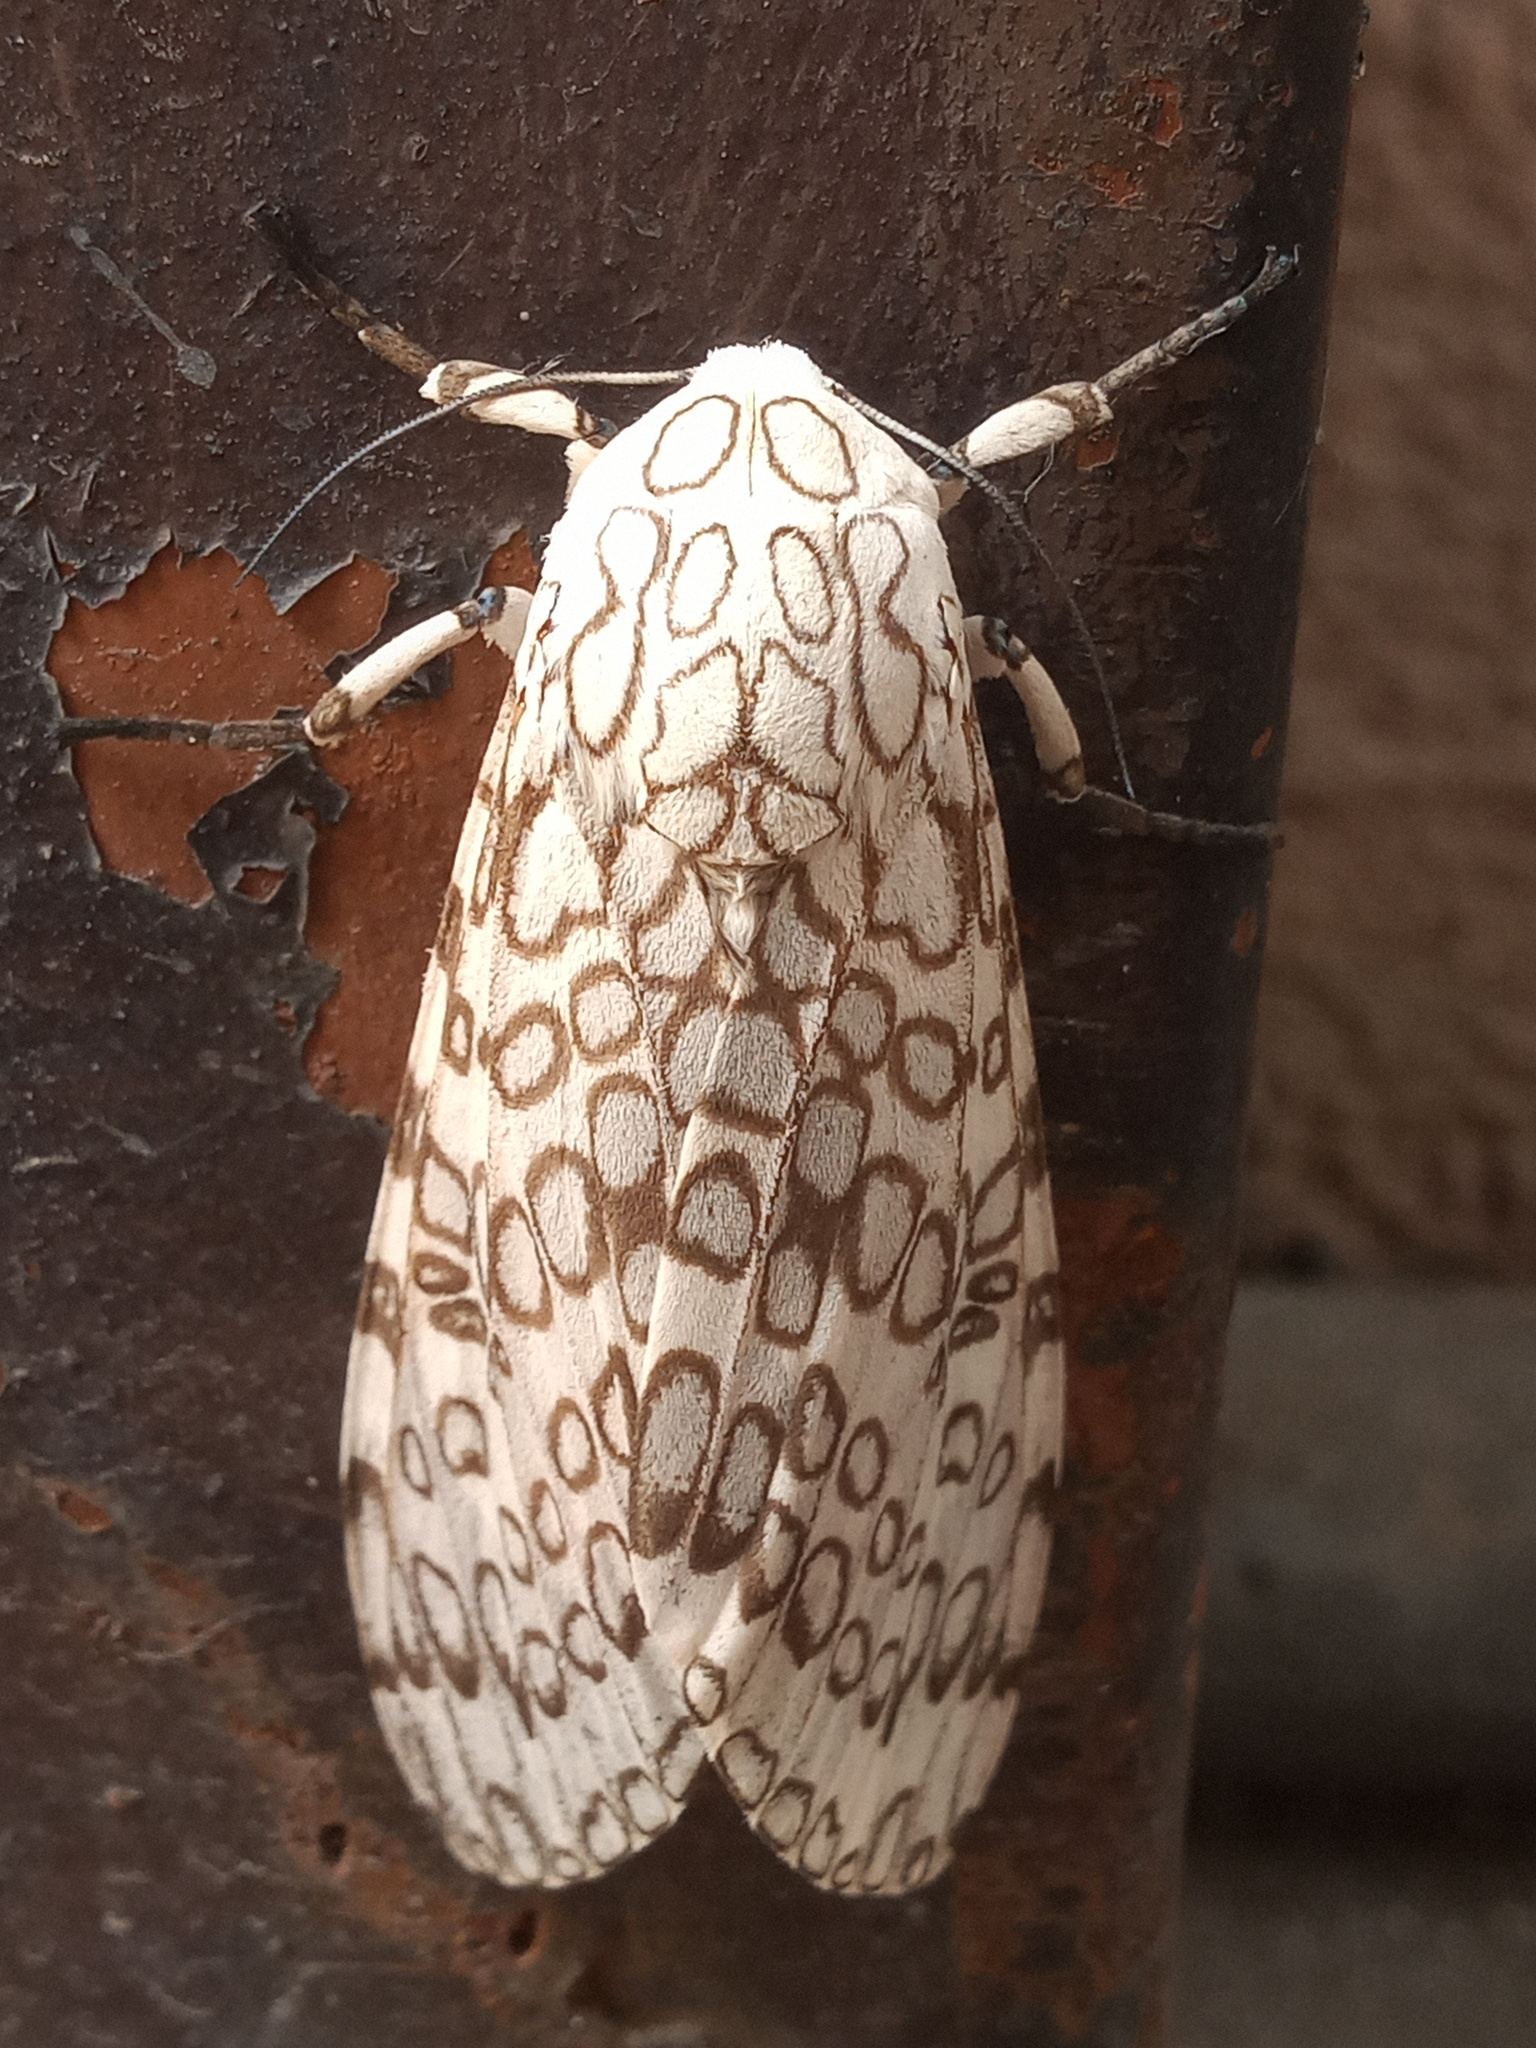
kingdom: Animalia
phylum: Arthropoda
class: Insecta
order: Lepidoptera
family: Erebidae
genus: Hypercompe
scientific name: Hypercompe caudata
